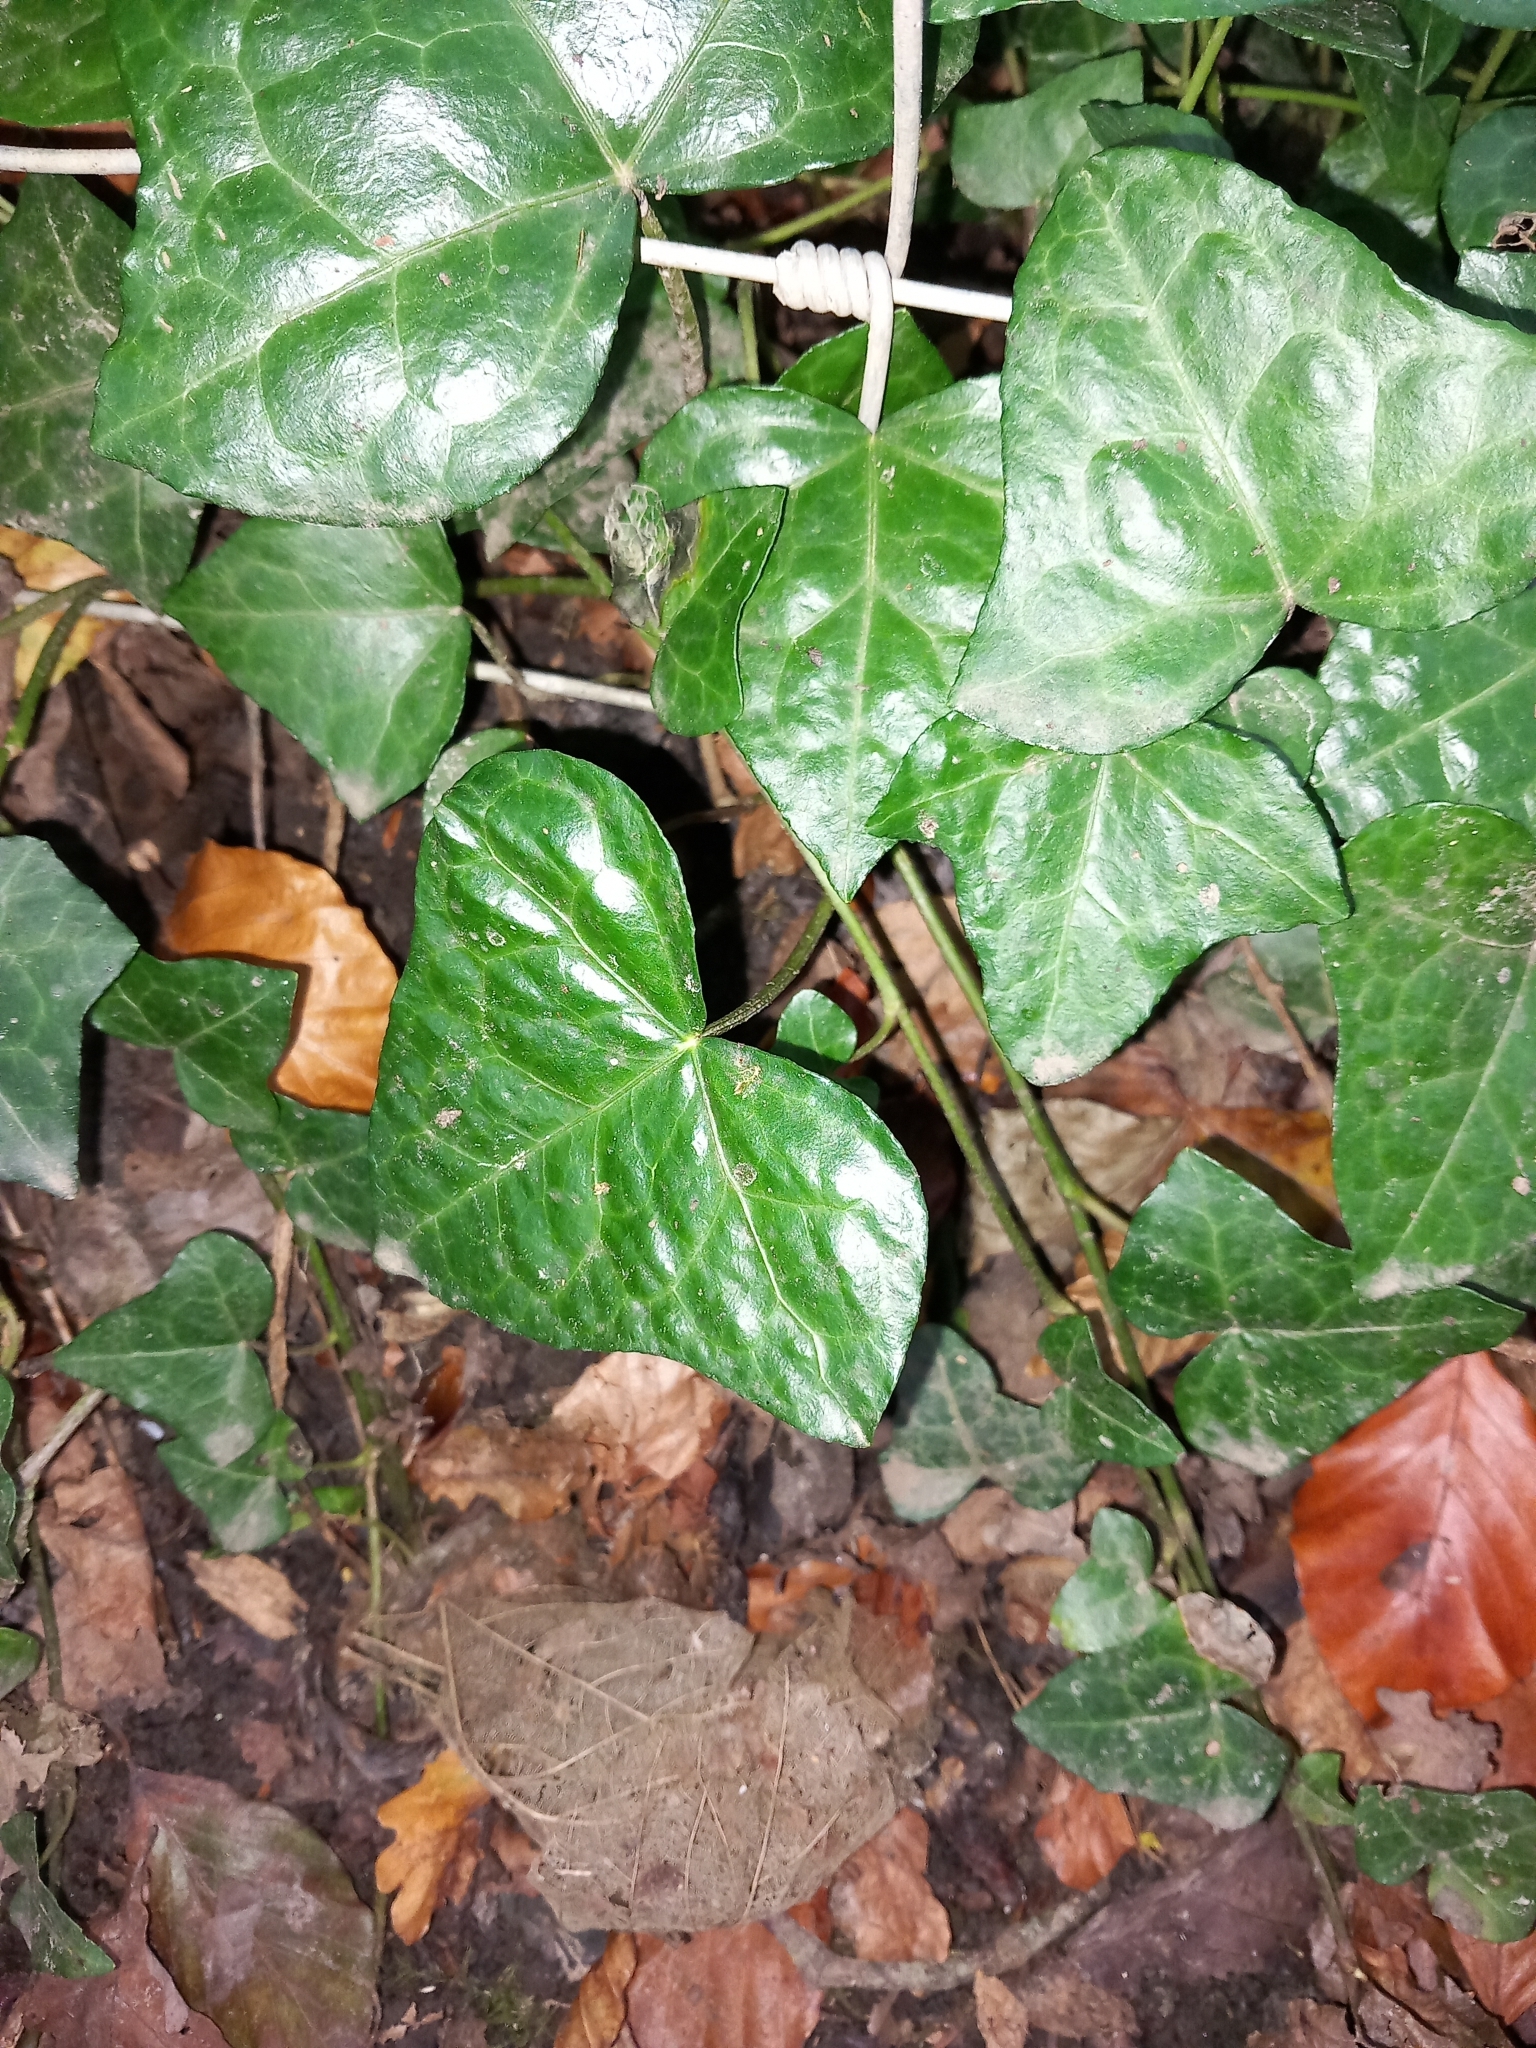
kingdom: Plantae
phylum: Tracheophyta
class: Magnoliopsida
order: Apiales
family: Araliaceae
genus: Hedera
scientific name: Hedera helix
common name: Ivy
